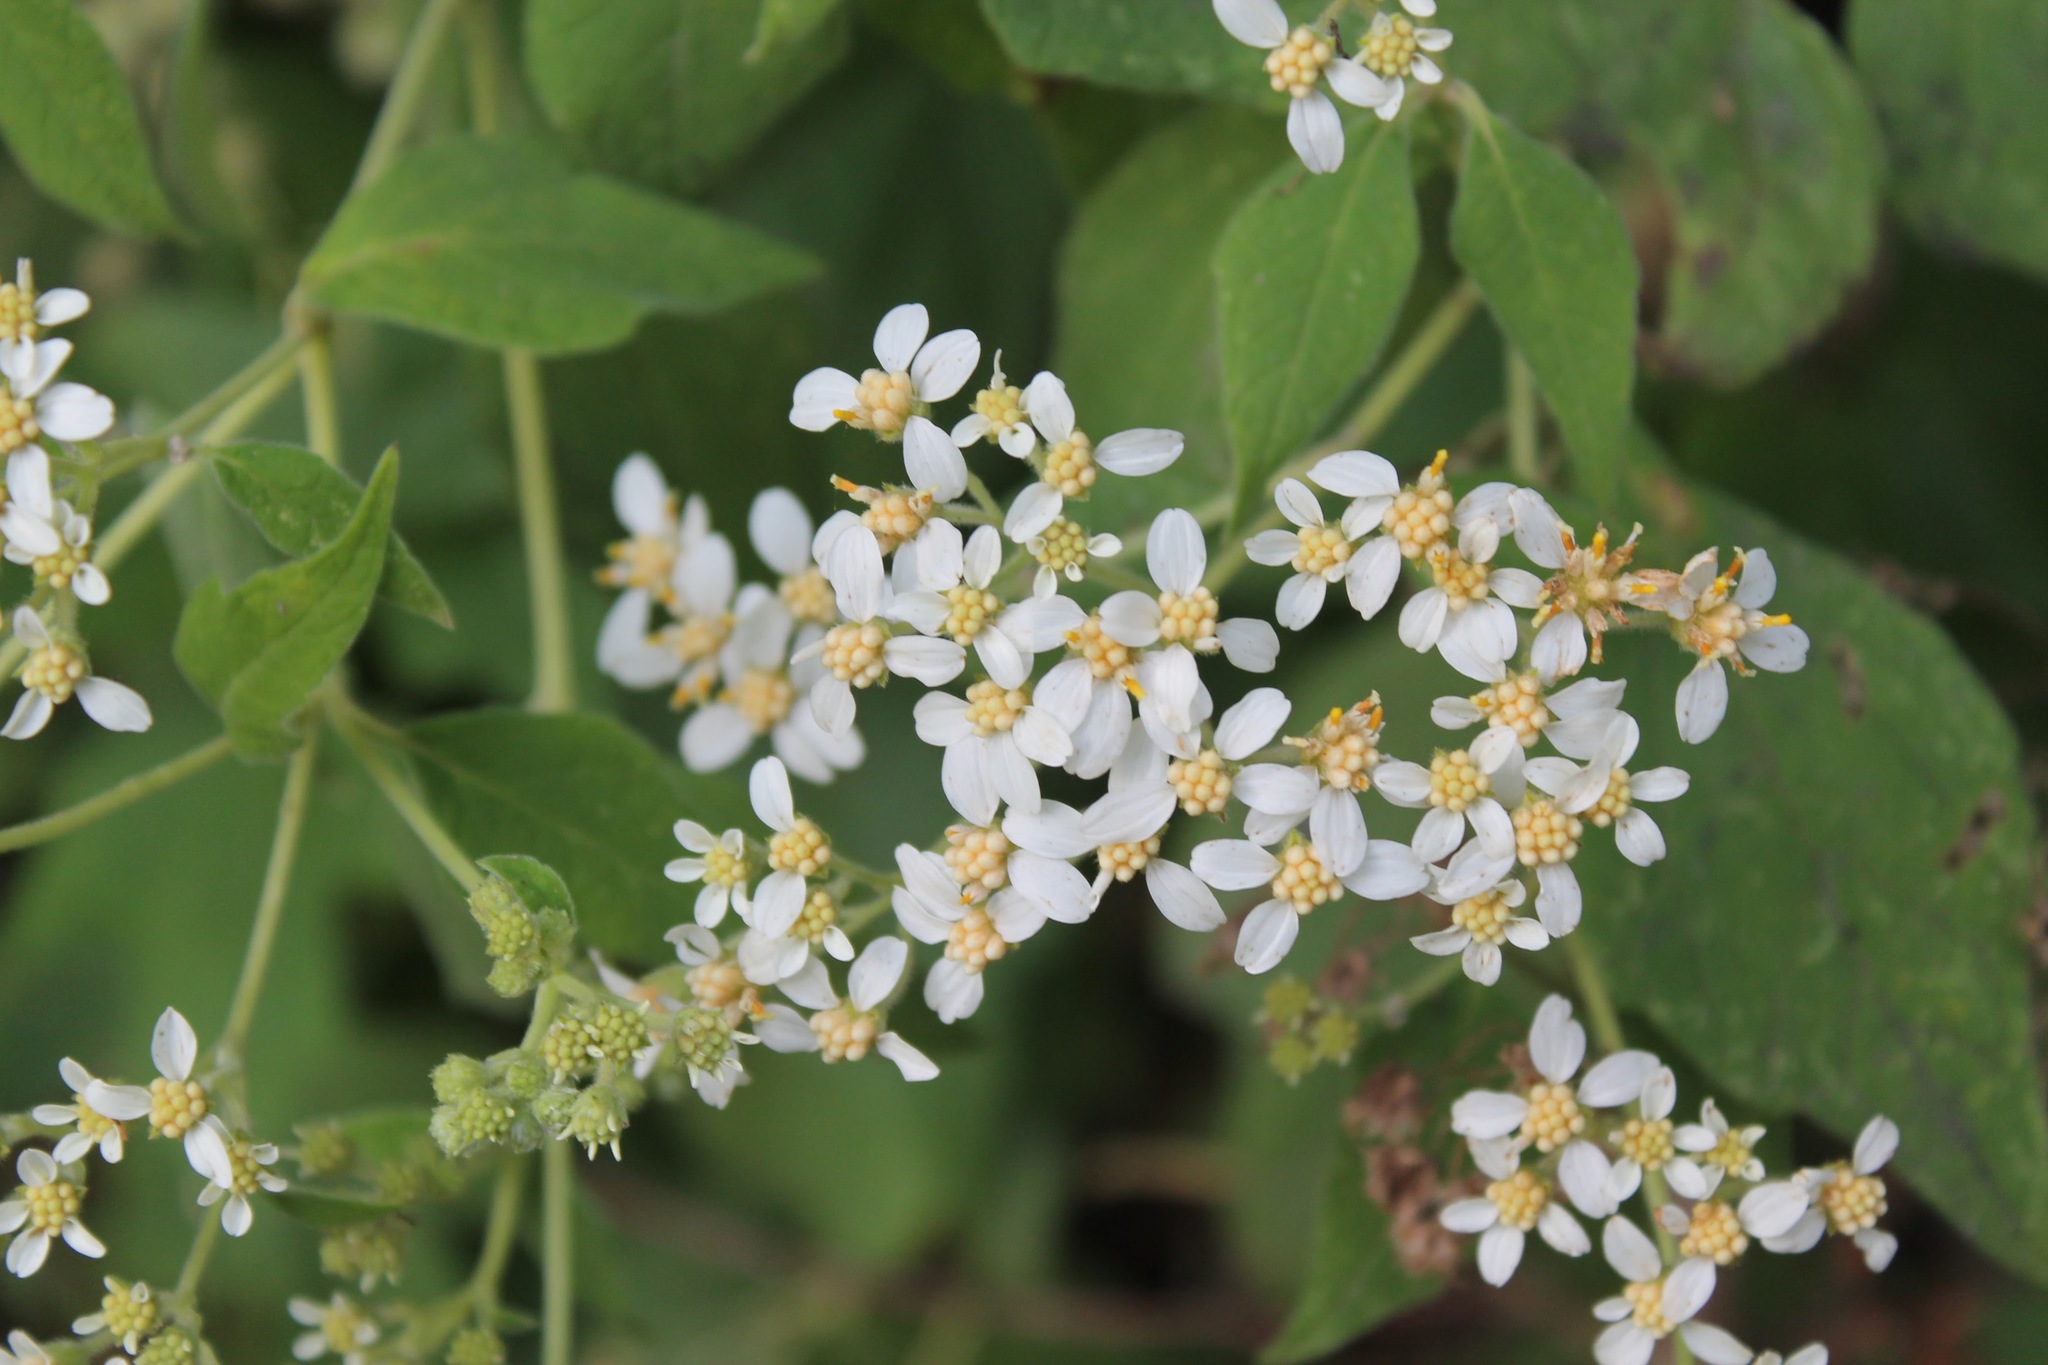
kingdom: Plantae
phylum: Tracheophyta
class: Magnoliopsida
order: Asterales
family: Asteraceae
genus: Montanoa
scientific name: Montanoa tomentosa
